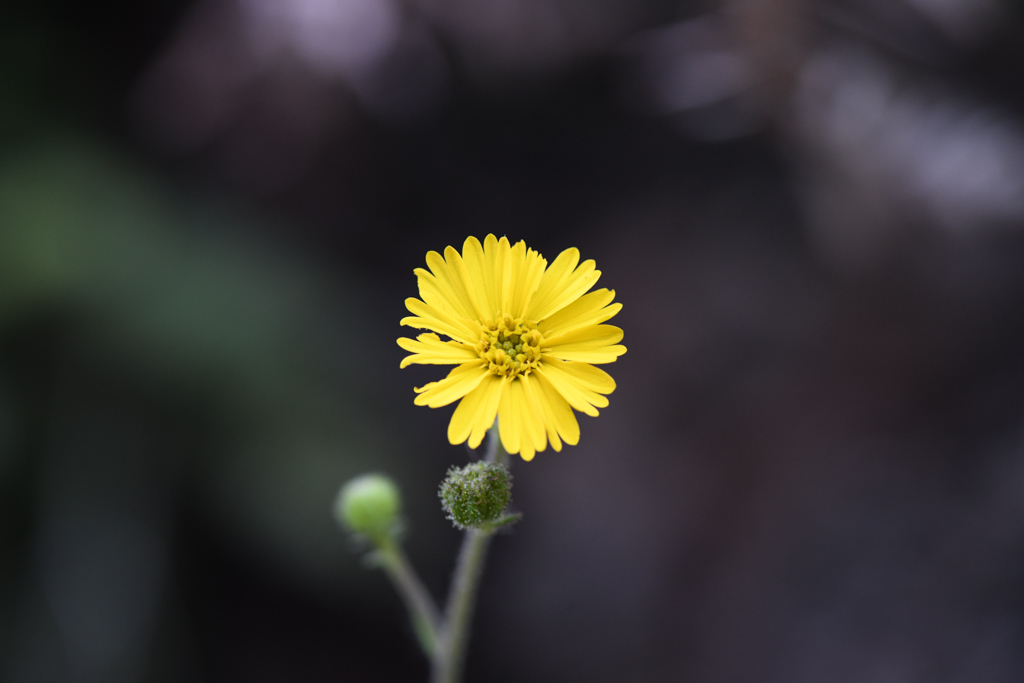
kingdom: Plantae
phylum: Tracheophyta
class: Magnoliopsida
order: Asterales
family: Asteraceae
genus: Anisocarpus
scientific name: Anisocarpus madioides
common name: Woodland madia
